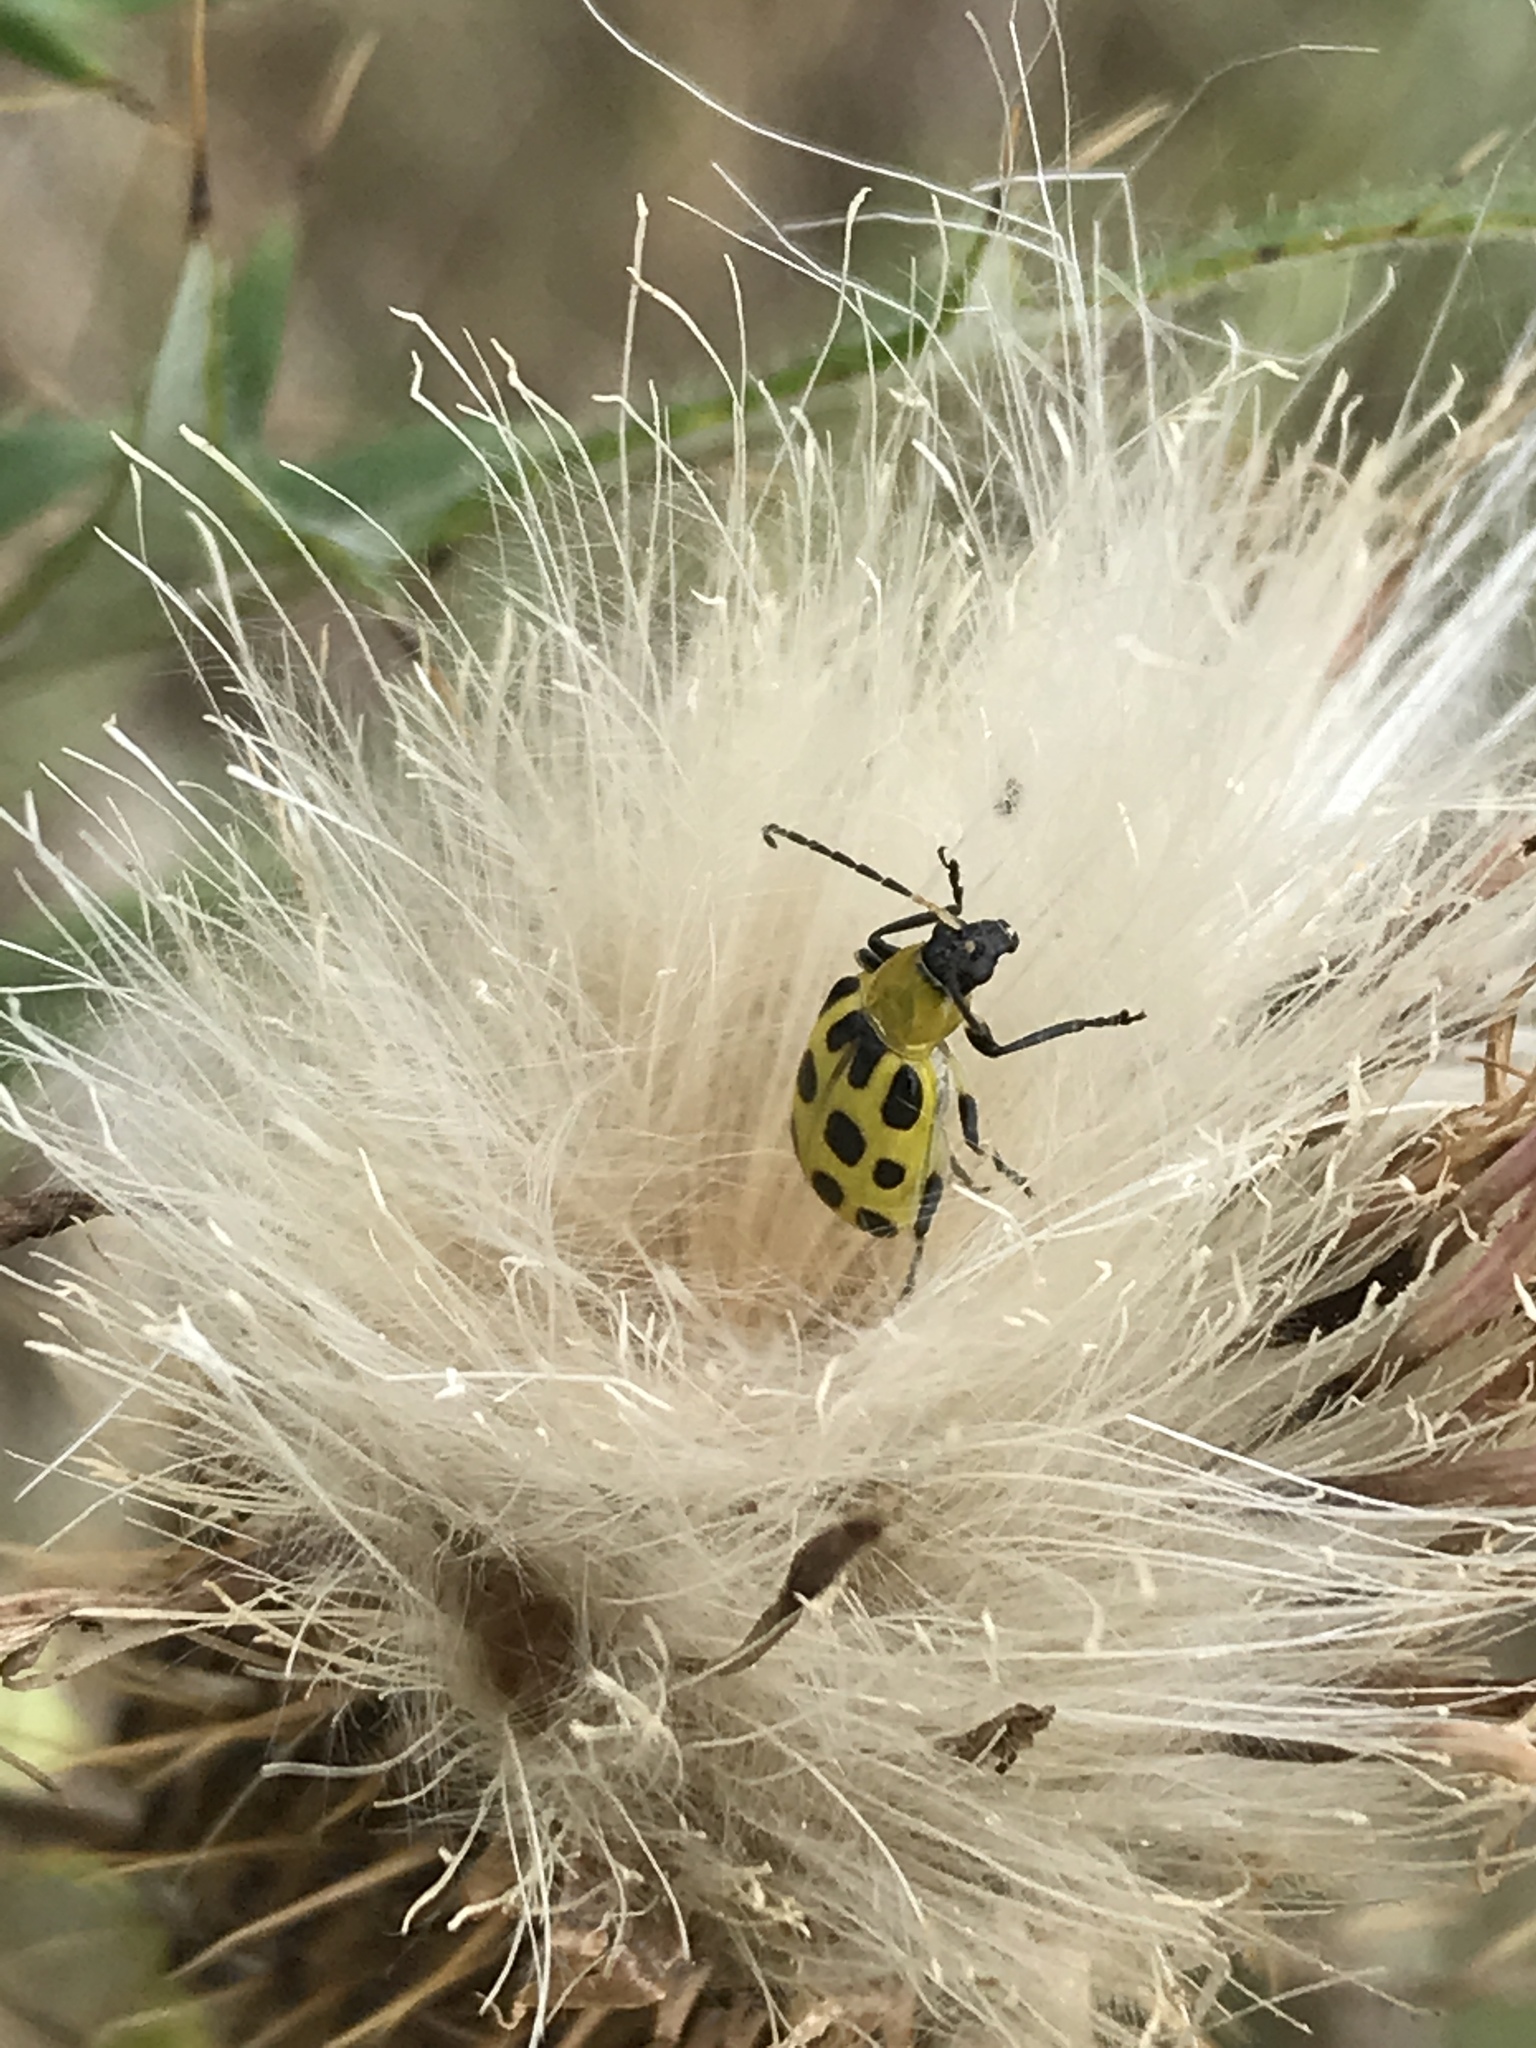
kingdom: Animalia
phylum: Arthropoda
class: Insecta
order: Coleoptera
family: Chrysomelidae
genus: Diabrotica
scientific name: Diabrotica undecimpunctata
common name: Spotted cucumber beetle
